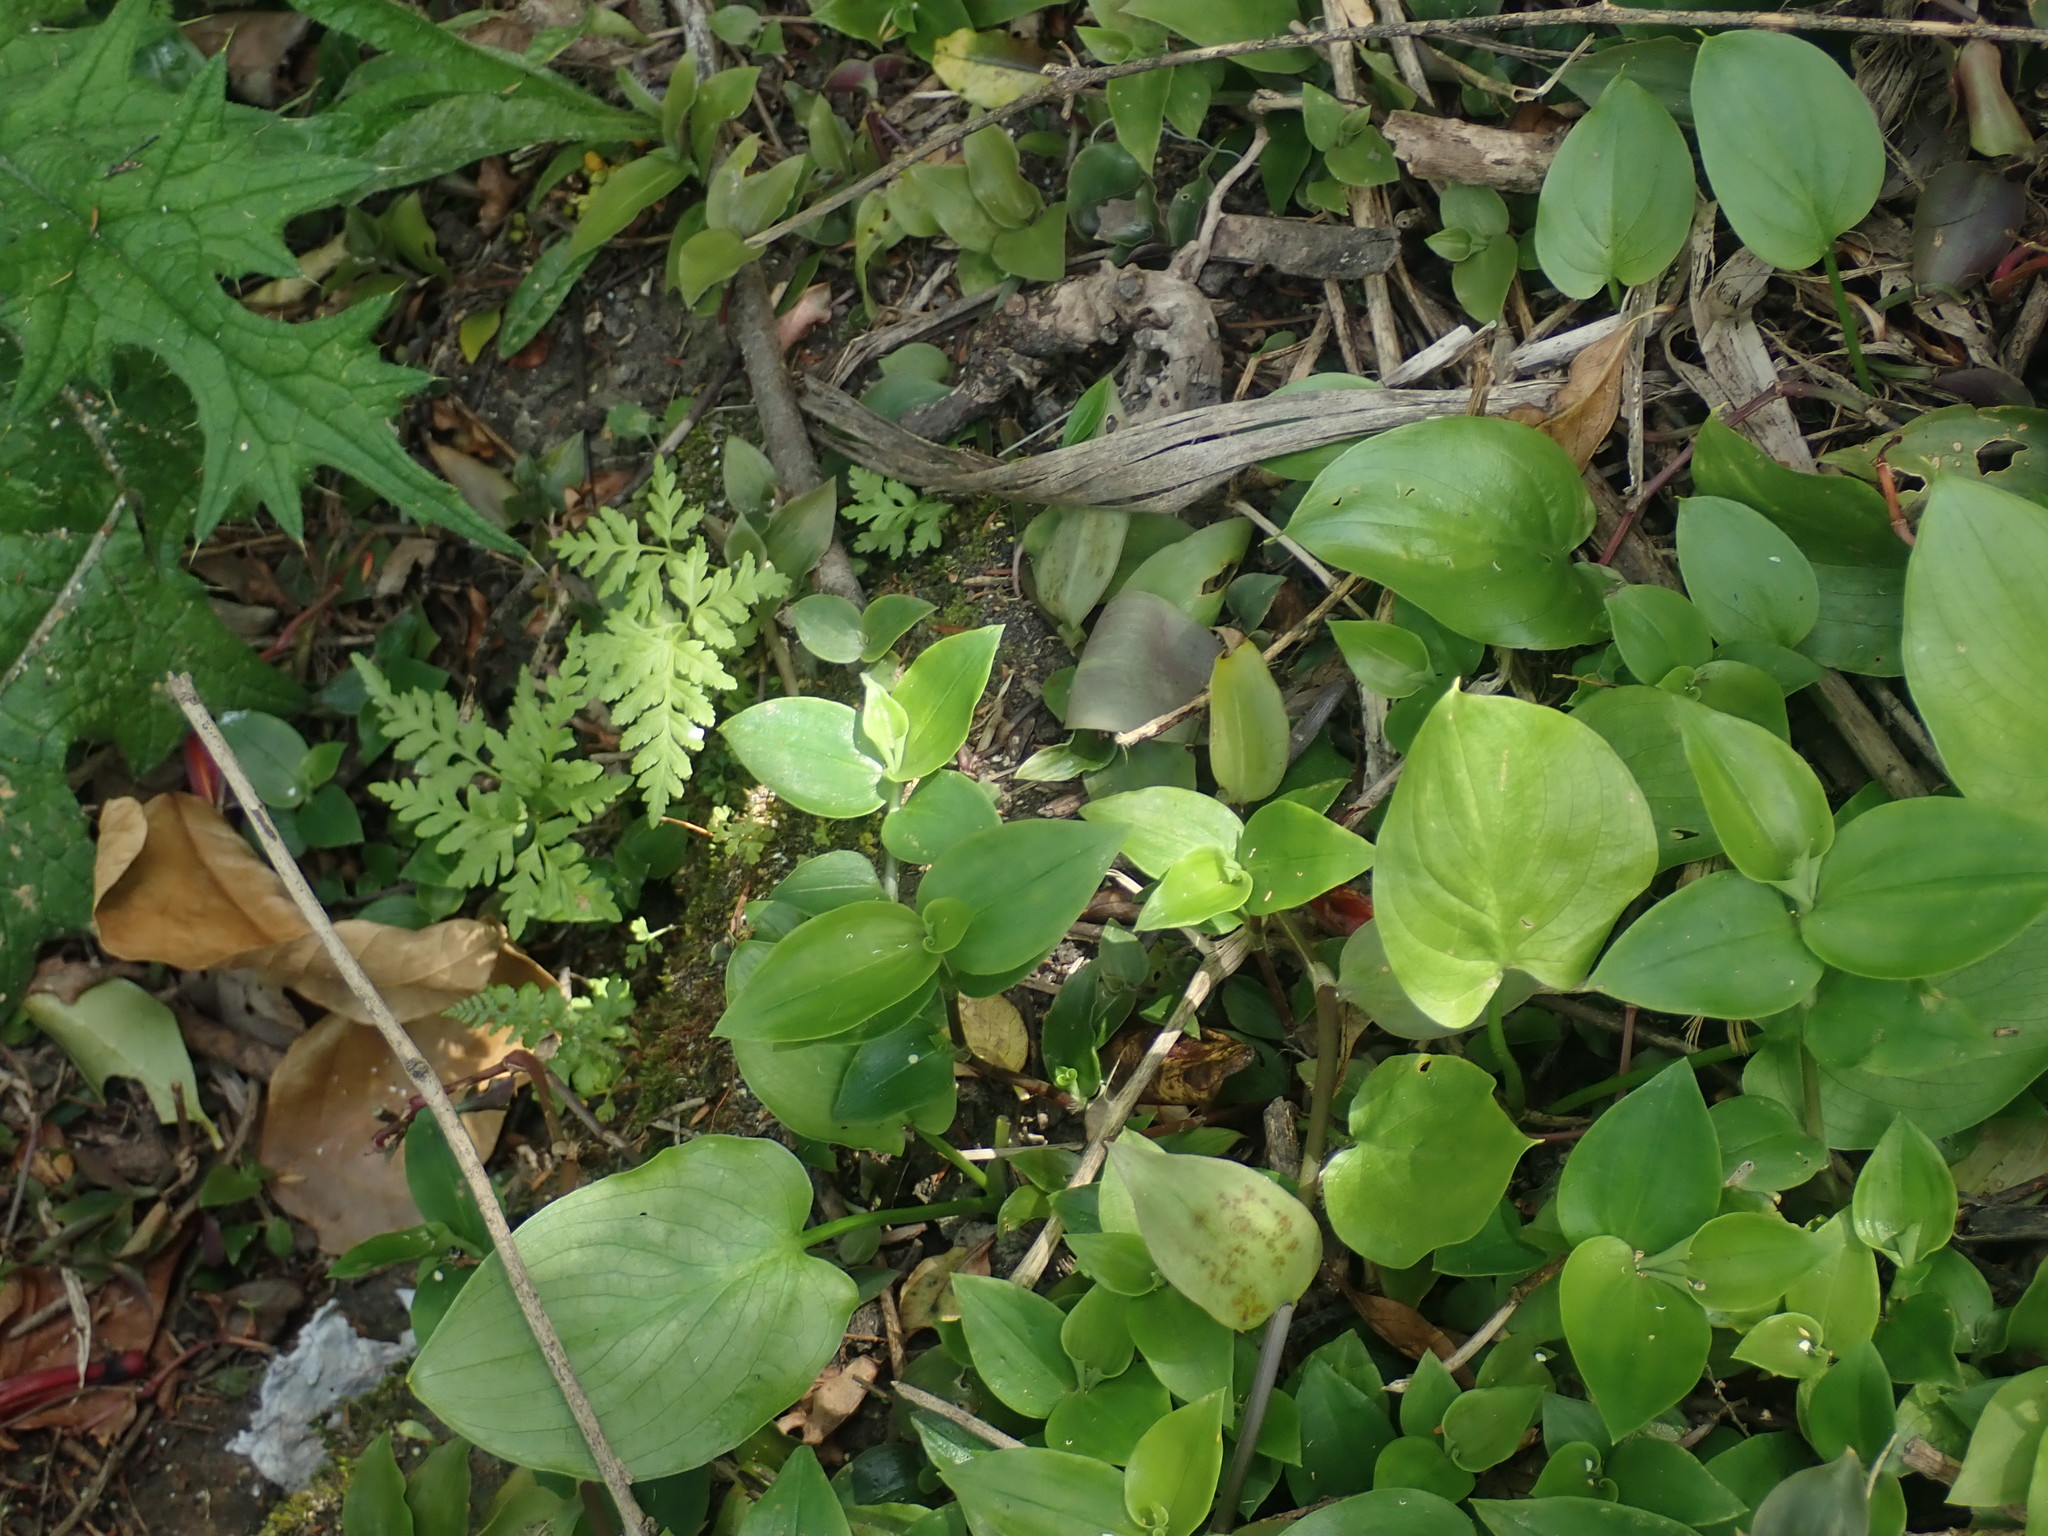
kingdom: Plantae
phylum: Tracheophyta
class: Polypodiopsida
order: Polypodiales
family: Pteridaceae
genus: Pteris
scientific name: Pteris tremula
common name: Australian brake
